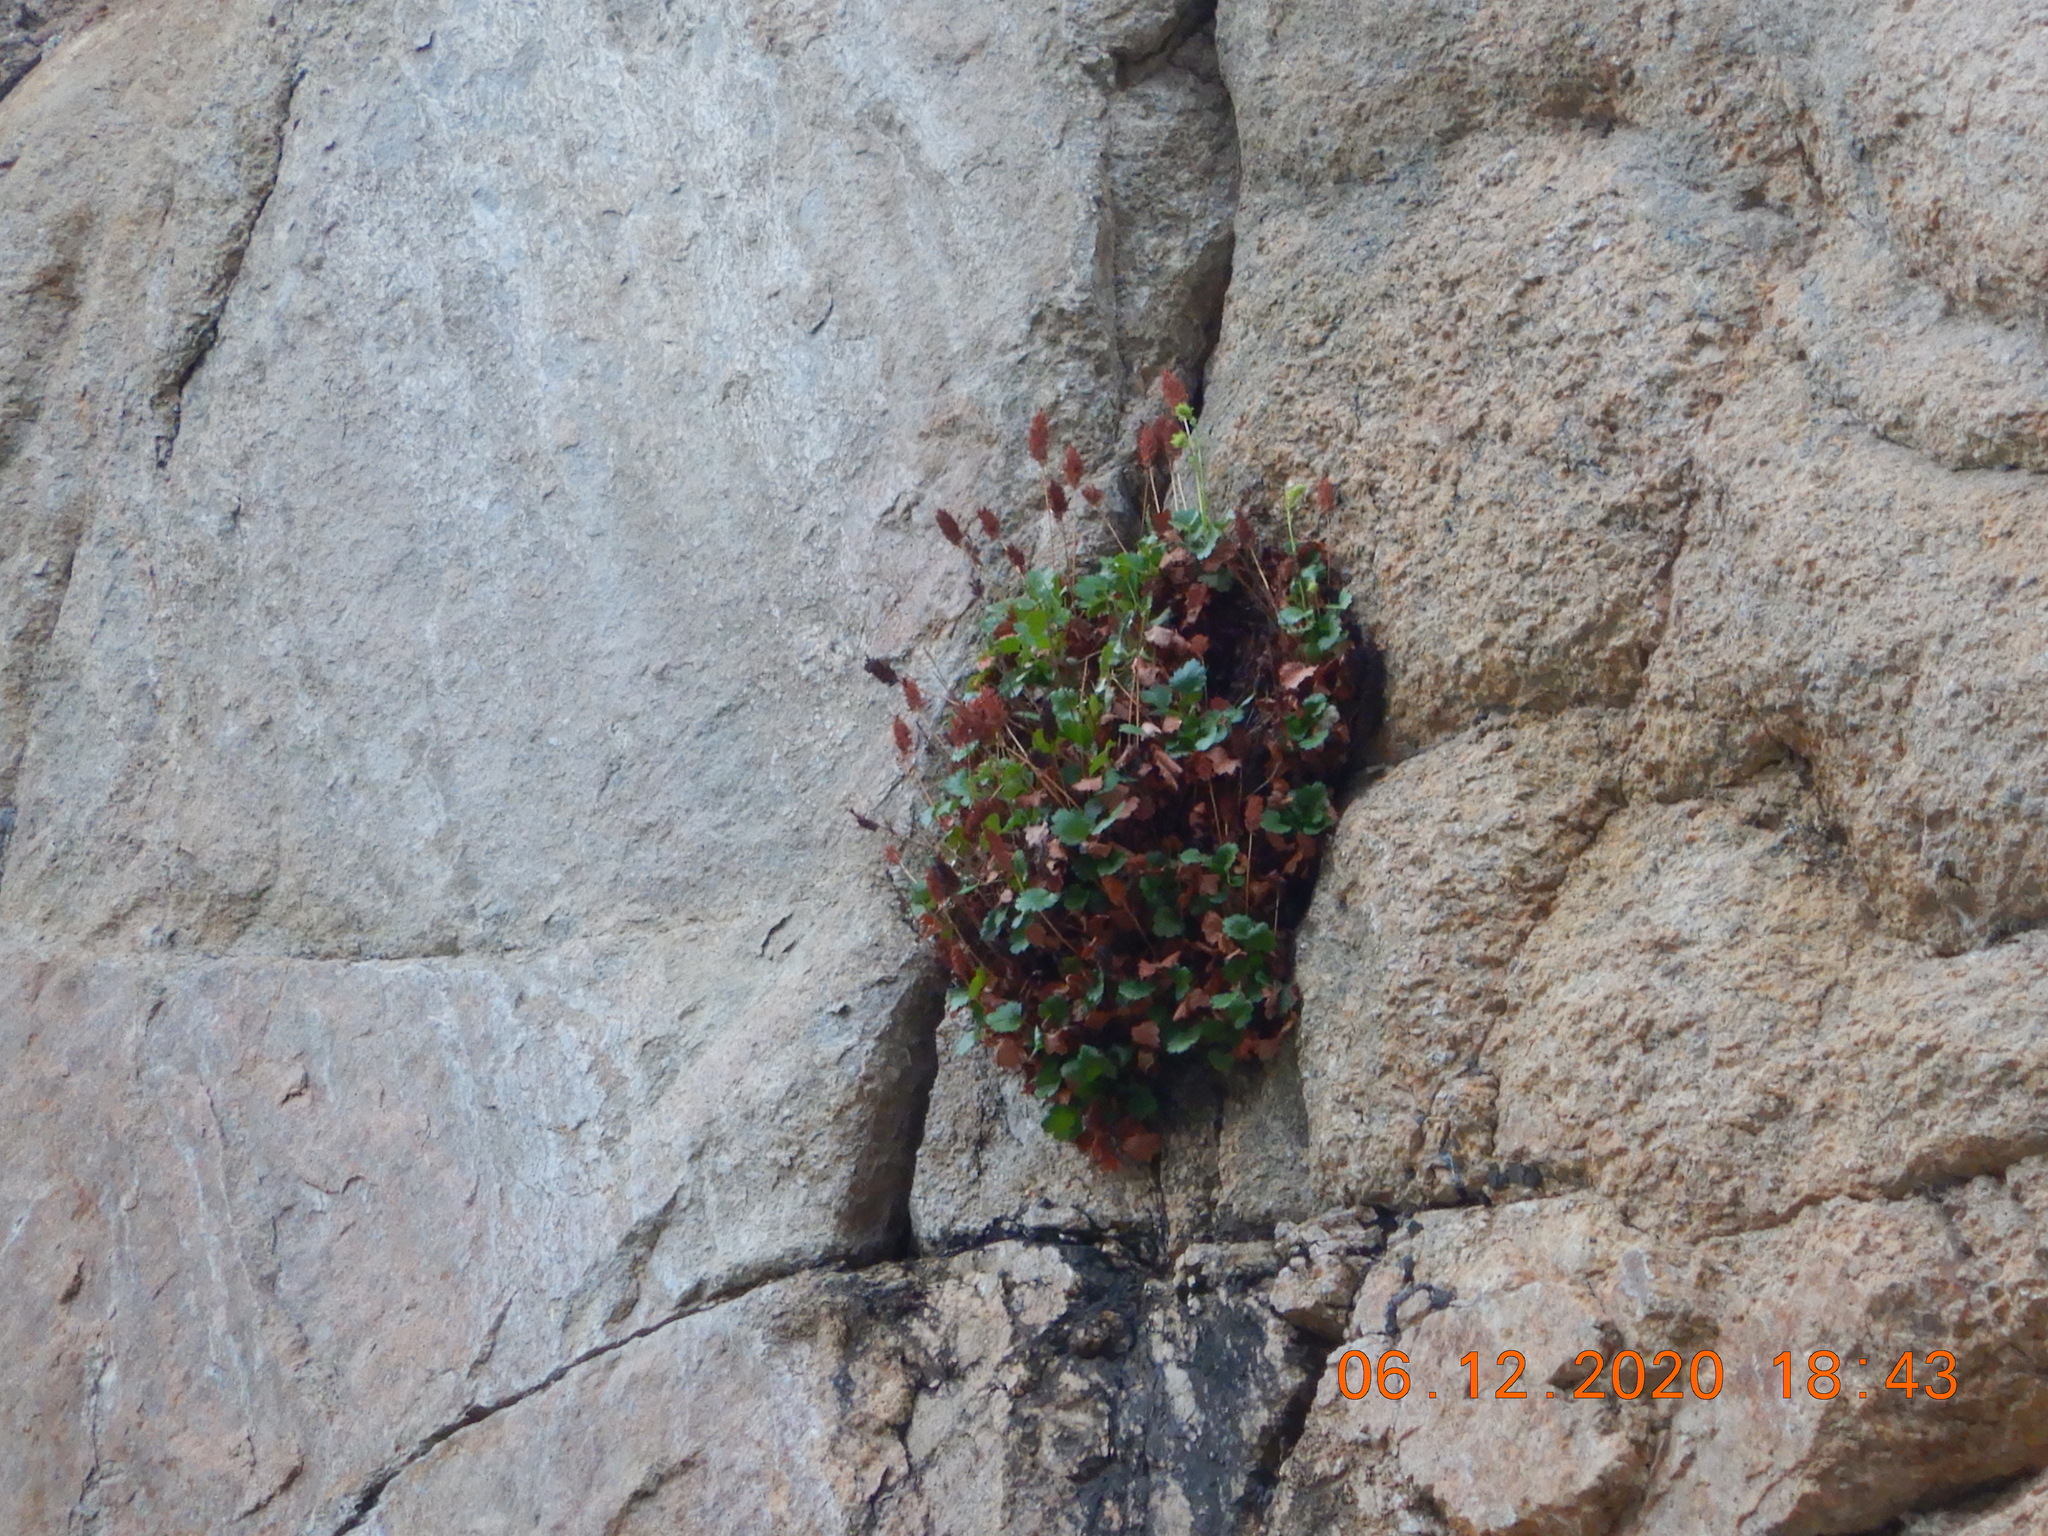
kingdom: Plantae
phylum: Tracheophyta
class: Magnoliopsida
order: Caryophyllales
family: Polygonaceae
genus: Oxyria
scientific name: Oxyria digyna
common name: Alpine mountain-sorrel
